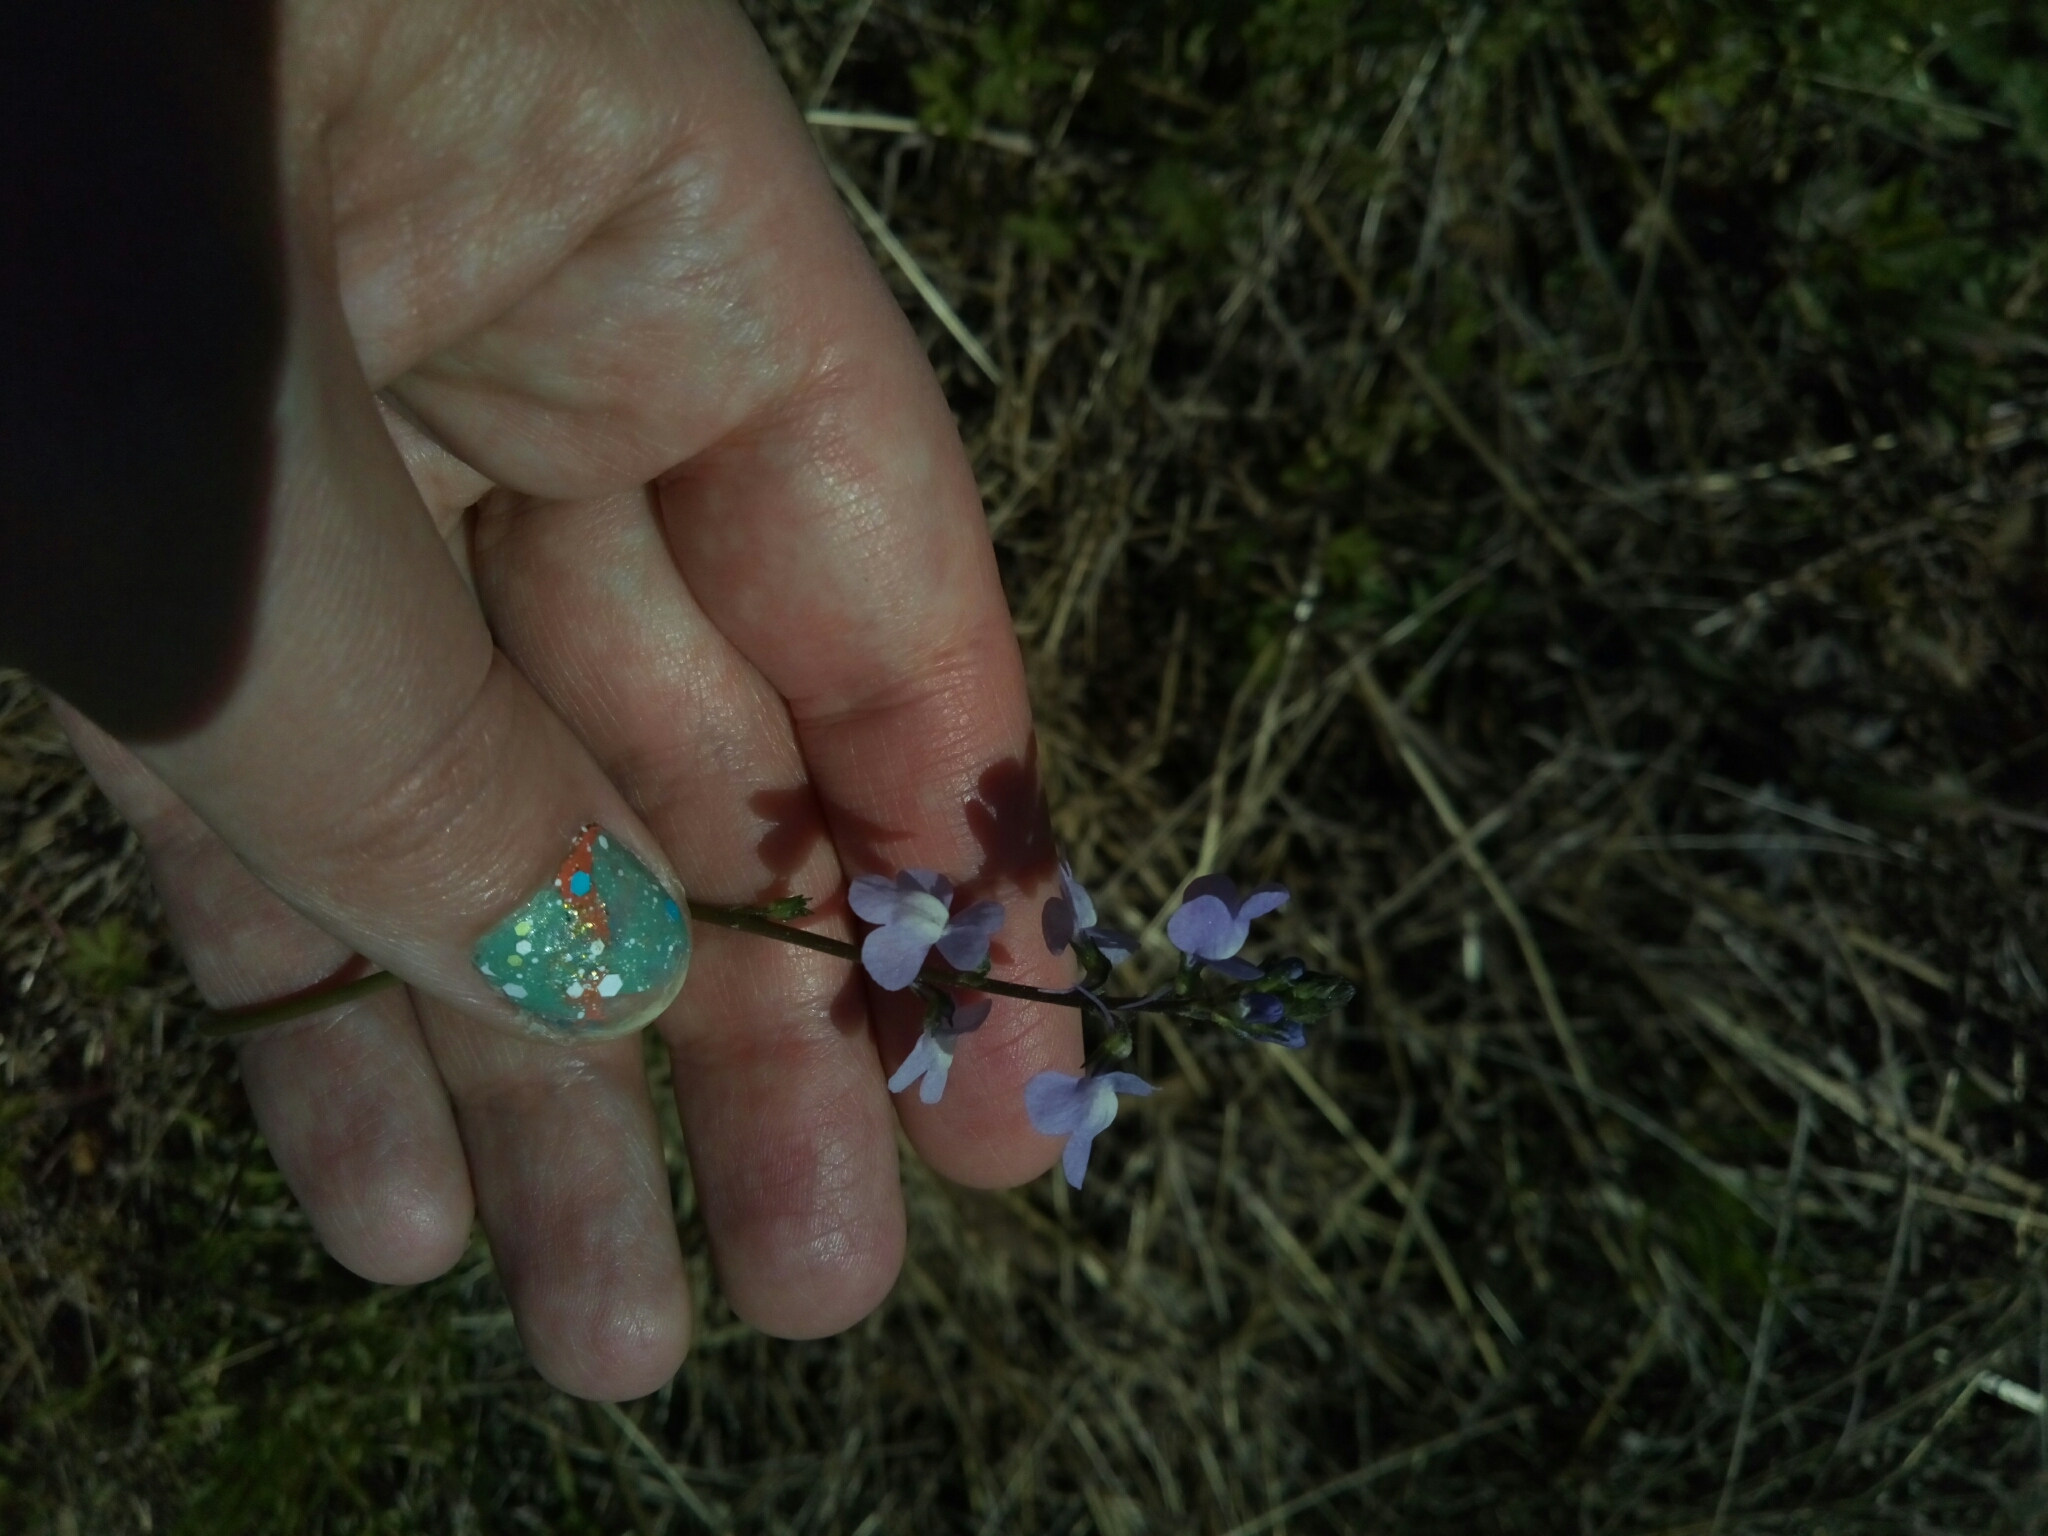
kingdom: Plantae
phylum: Tracheophyta
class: Magnoliopsida
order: Lamiales
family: Plantaginaceae
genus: Nuttallanthus
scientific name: Nuttallanthus canadensis
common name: Blue toadflax
